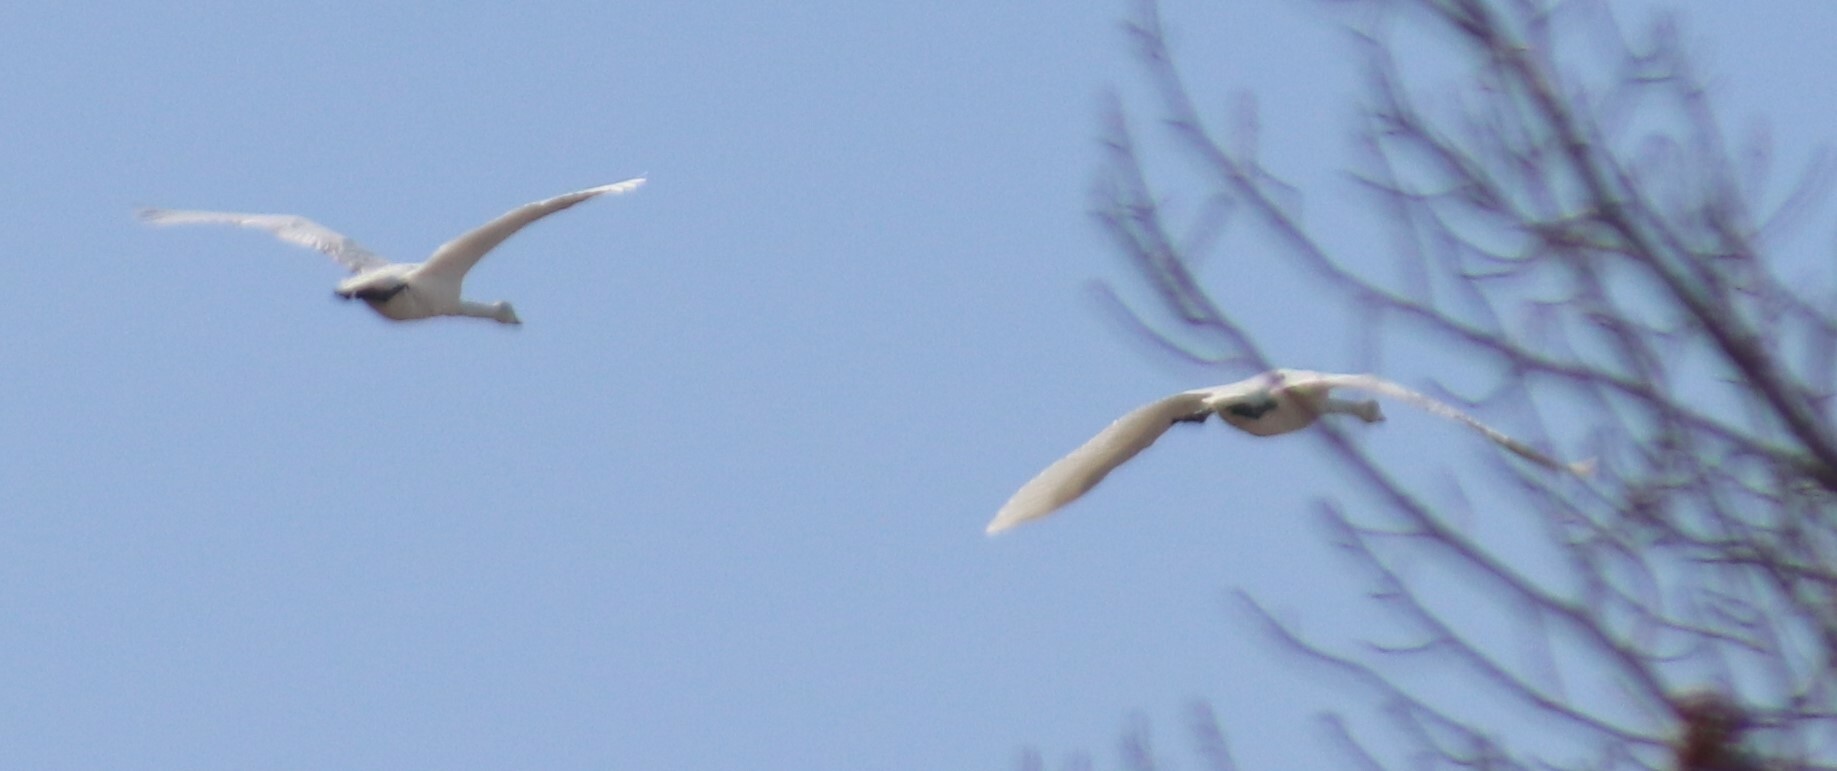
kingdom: Animalia
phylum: Chordata
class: Aves
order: Anseriformes
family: Anatidae
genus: Cygnus
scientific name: Cygnus buccinator
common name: Trumpeter swan
